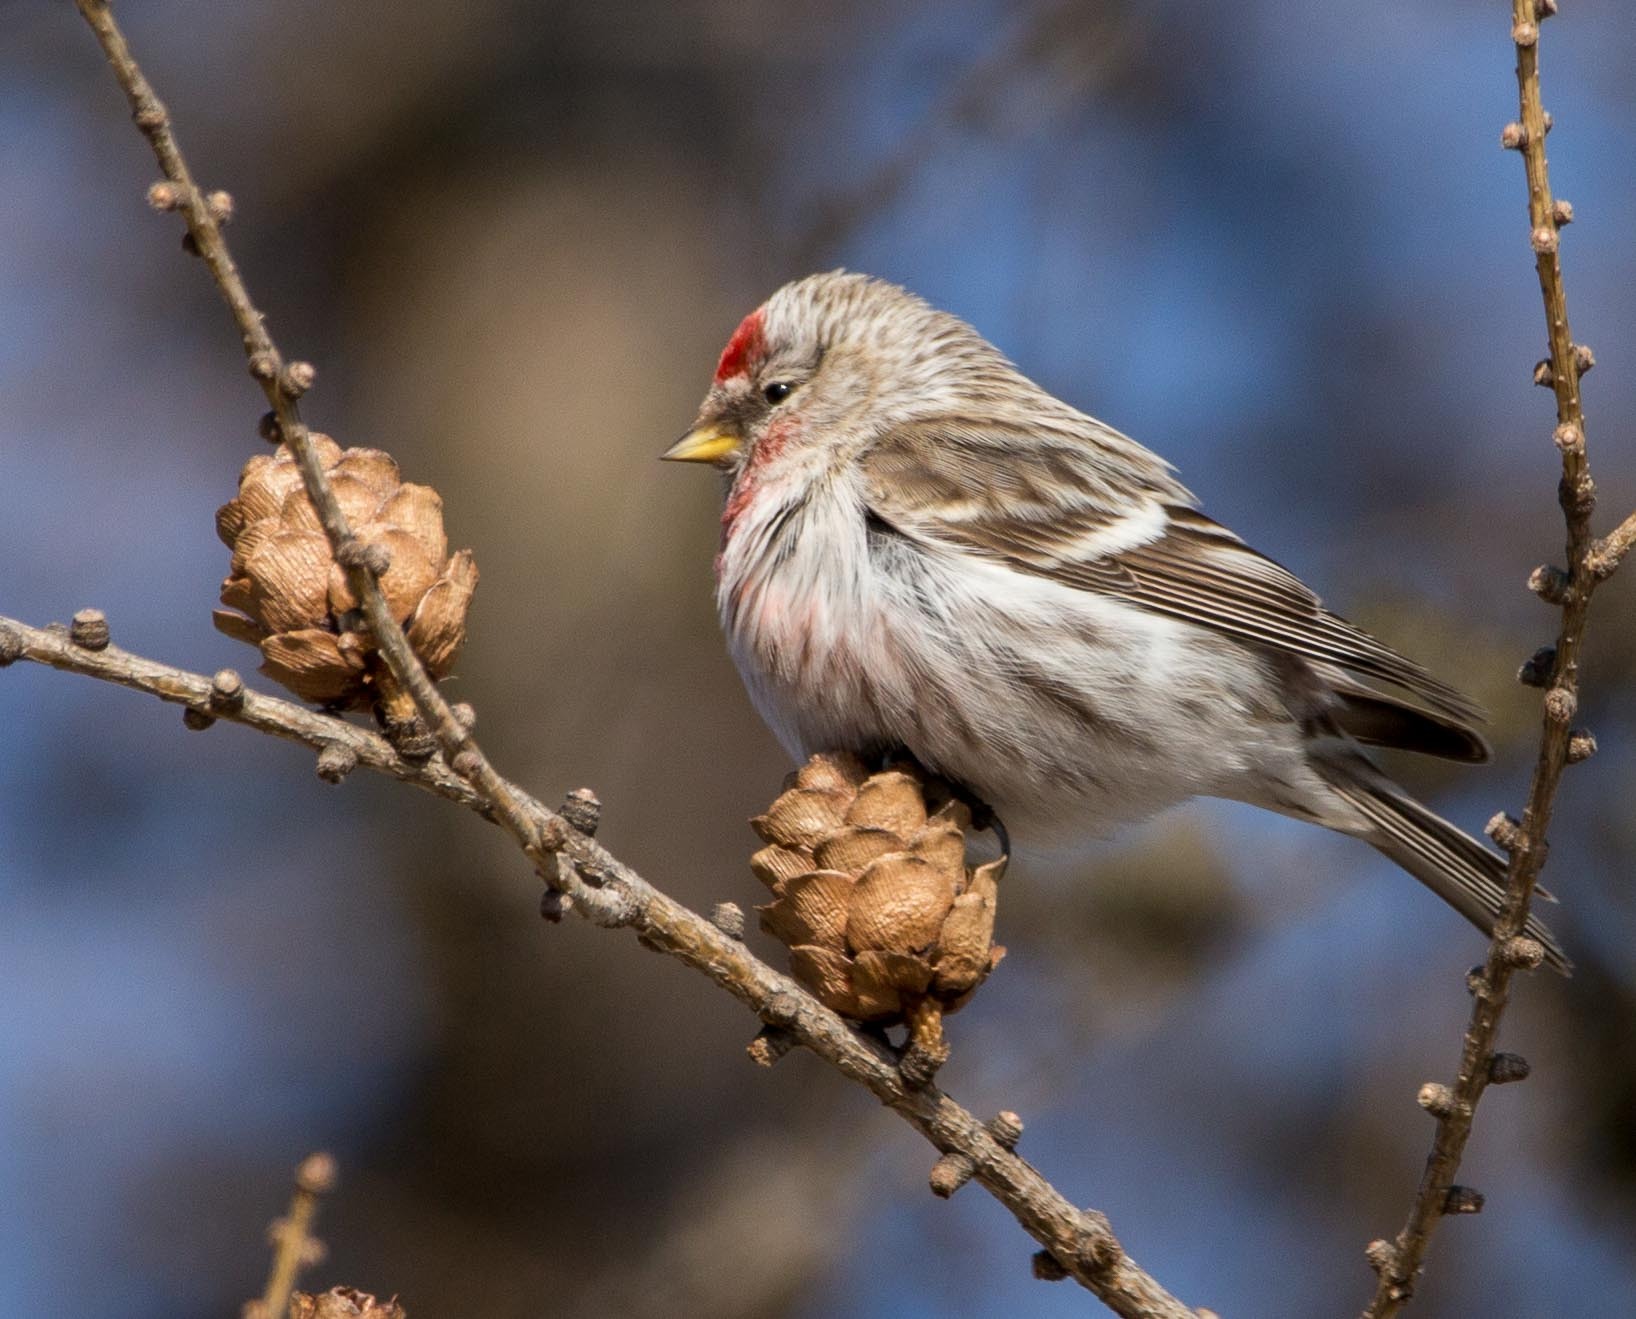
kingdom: Animalia
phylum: Chordata
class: Aves
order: Passeriformes
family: Fringillidae
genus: Acanthis
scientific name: Acanthis flammea
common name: Common redpoll
